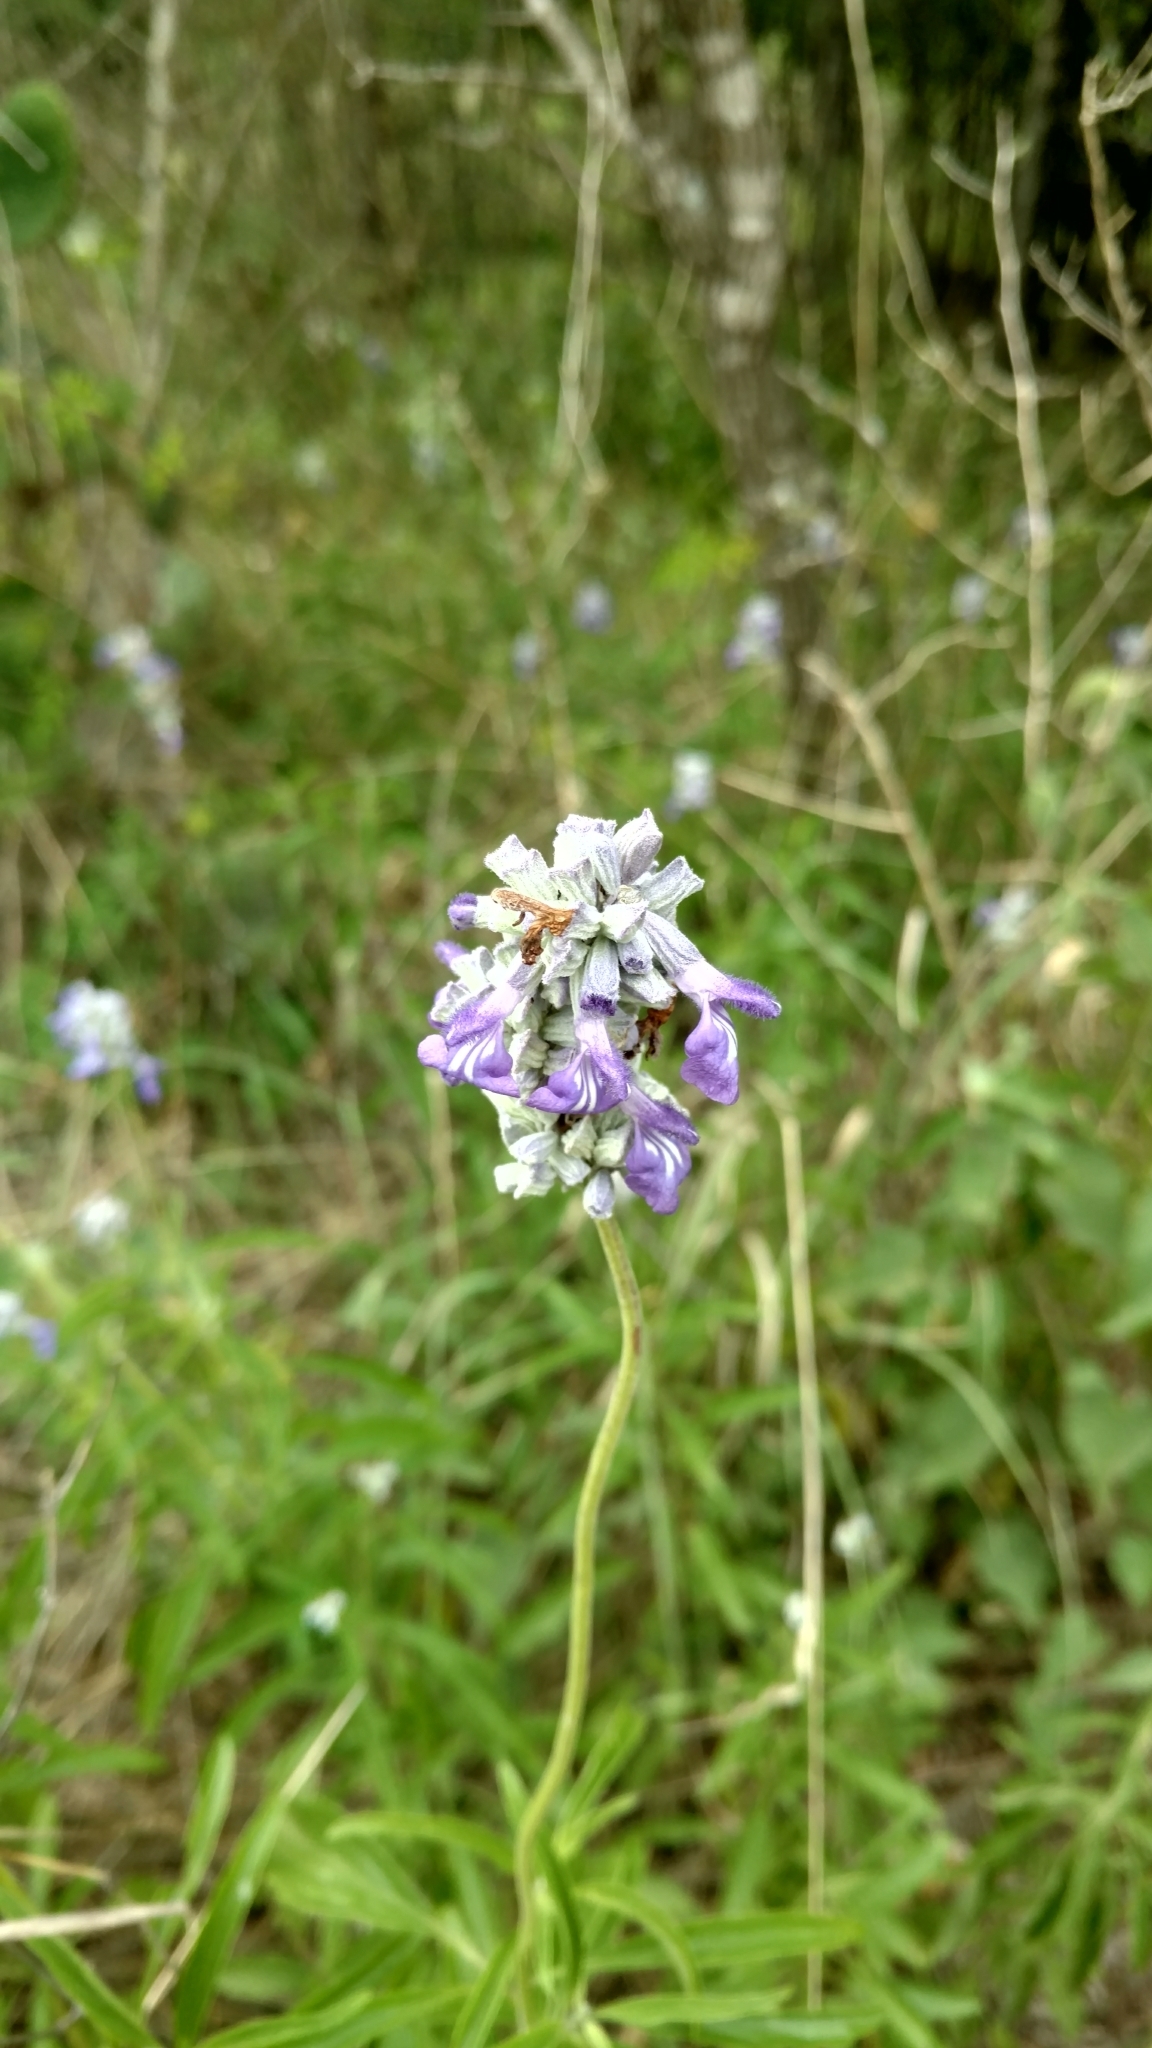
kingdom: Plantae
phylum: Tracheophyta
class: Magnoliopsida
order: Lamiales
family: Lamiaceae
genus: Salvia
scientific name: Salvia farinacea
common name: Mealy sage
